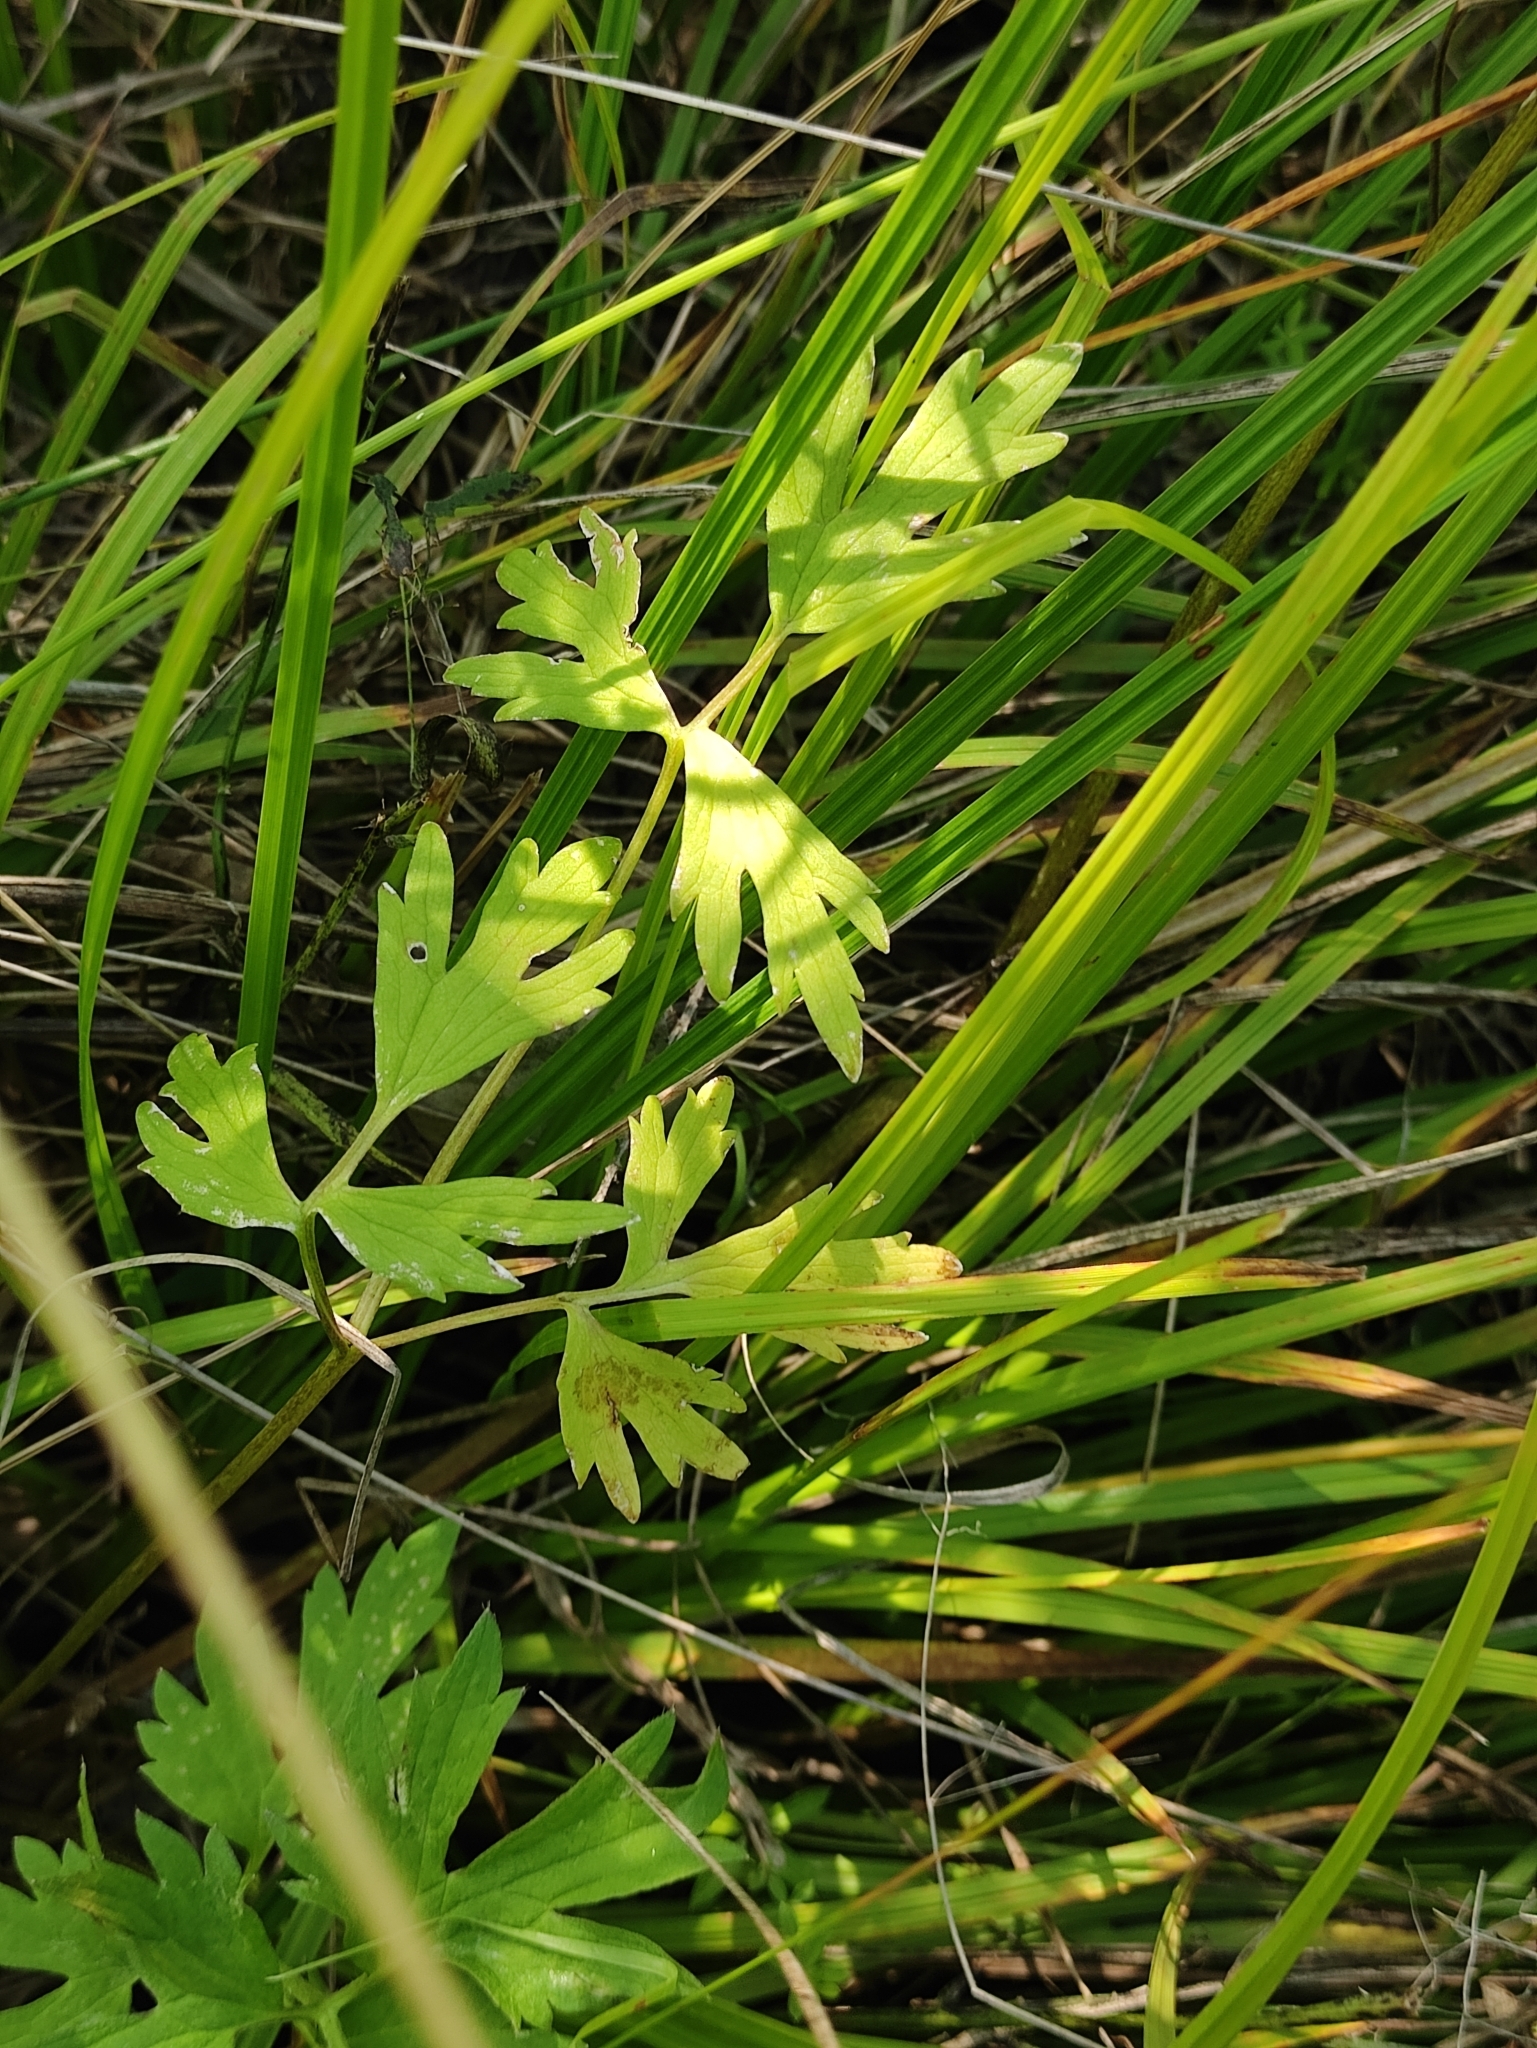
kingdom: Plantae
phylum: Tracheophyta
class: Magnoliopsida
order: Ranunculales
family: Ranunculaceae
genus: Ranunculus
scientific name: Ranunculus repens
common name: Creeping buttercup
